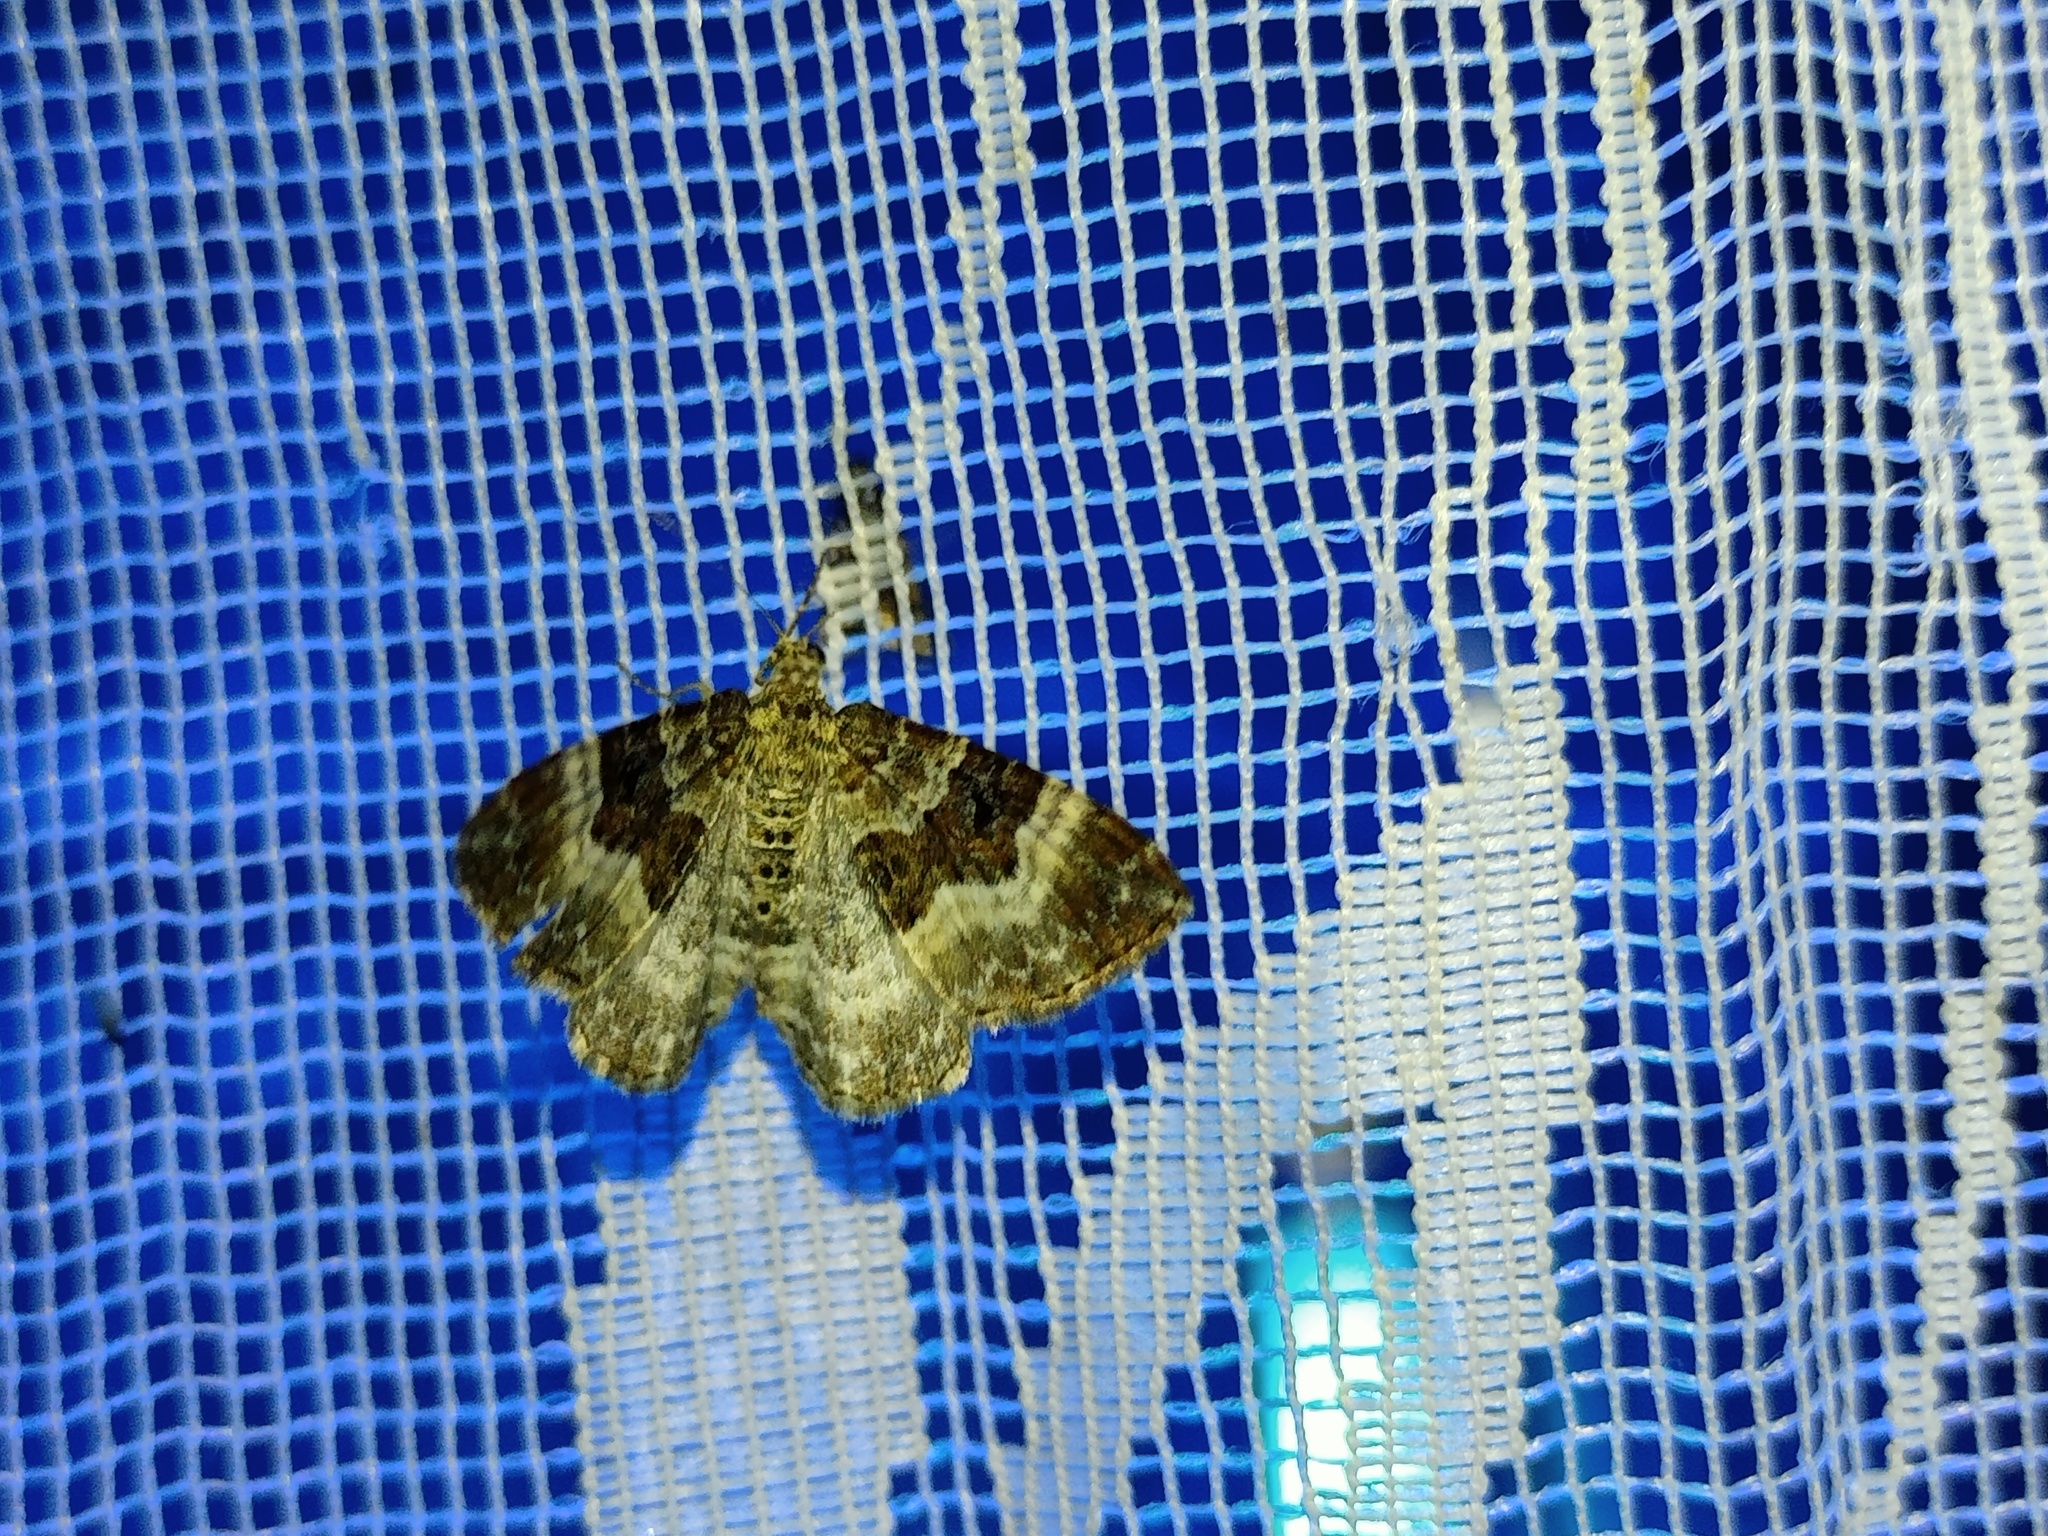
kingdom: Animalia
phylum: Arthropoda
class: Insecta
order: Lepidoptera
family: Geometridae
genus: Epirrhoe
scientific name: Epirrhoe alternata
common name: Common carpet
